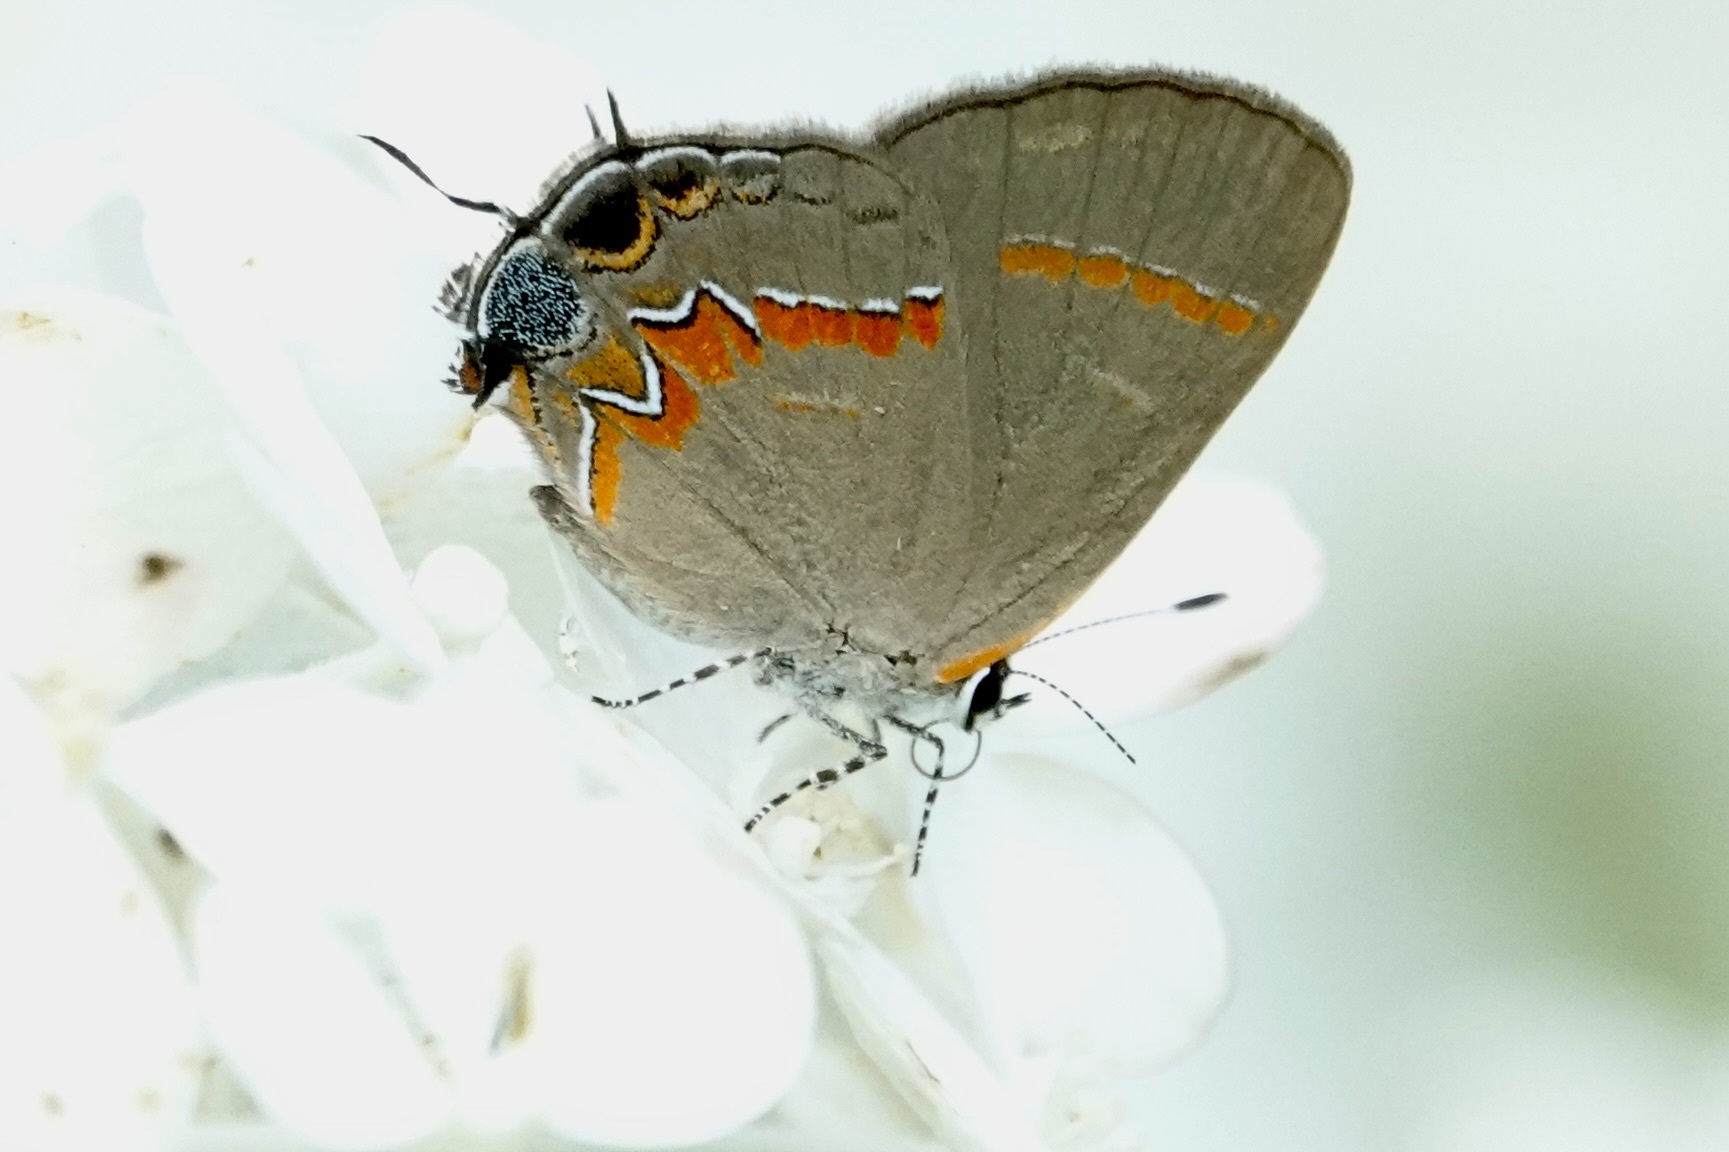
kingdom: Animalia
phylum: Arthropoda
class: Insecta
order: Lepidoptera
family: Lycaenidae
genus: Calycopis
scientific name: Calycopis cecrops
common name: Red-banded hairstreak
